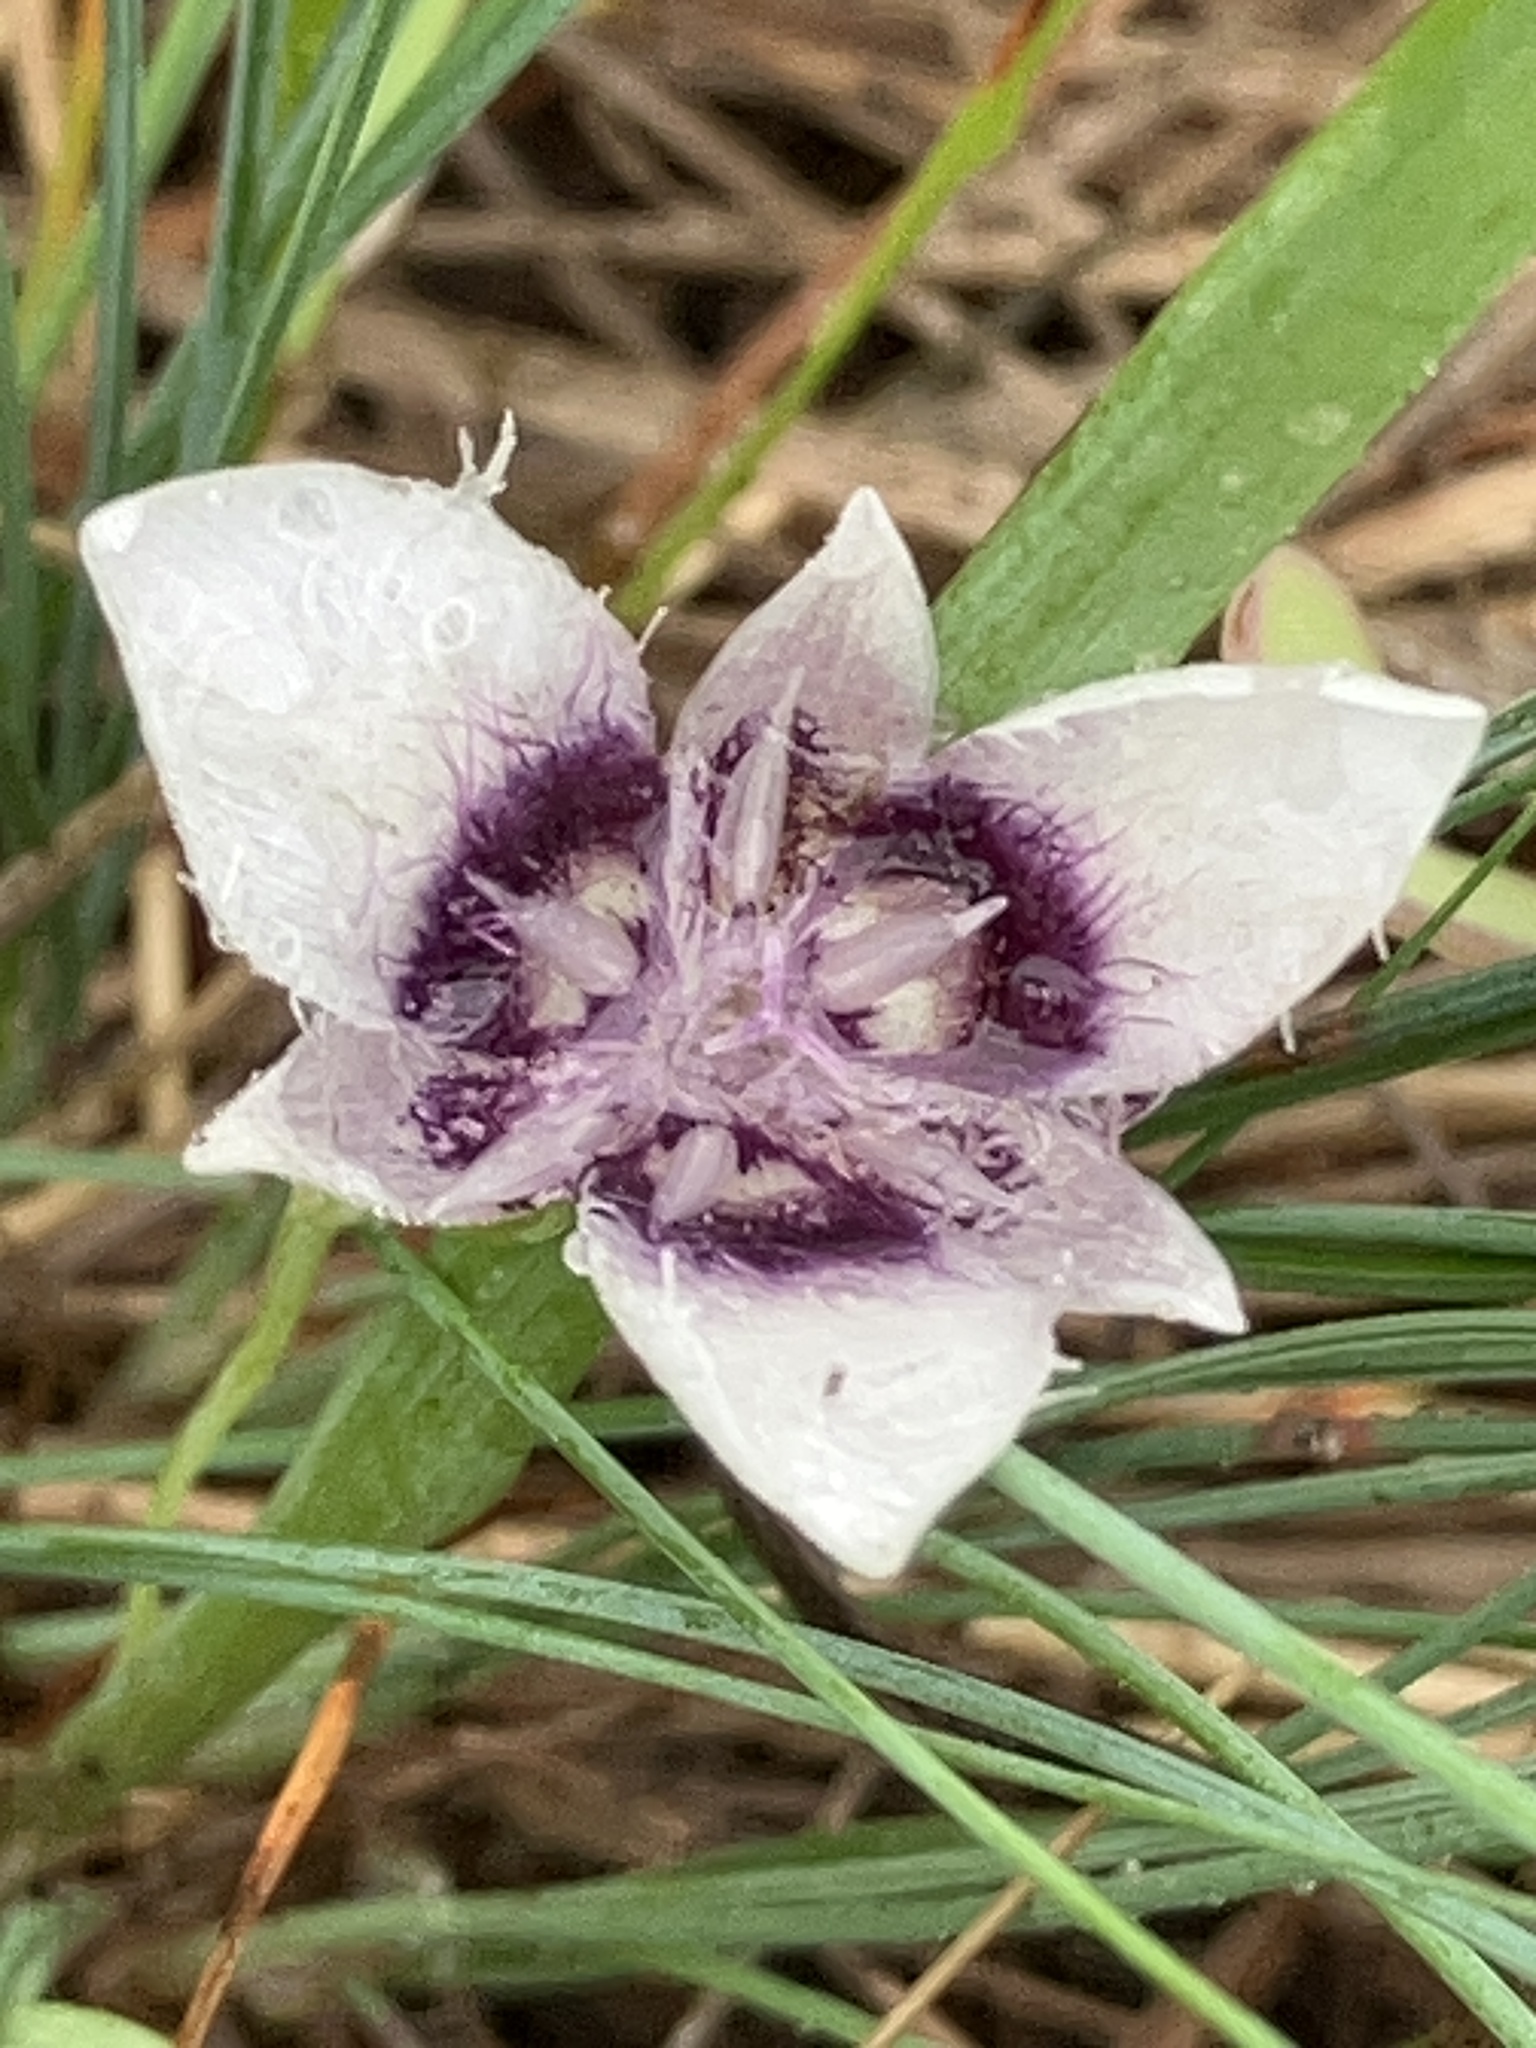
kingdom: Plantae
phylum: Tracheophyta
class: Liliopsida
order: Liliales
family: Liliaceae
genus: Calochortus
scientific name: Calochortus elegans
